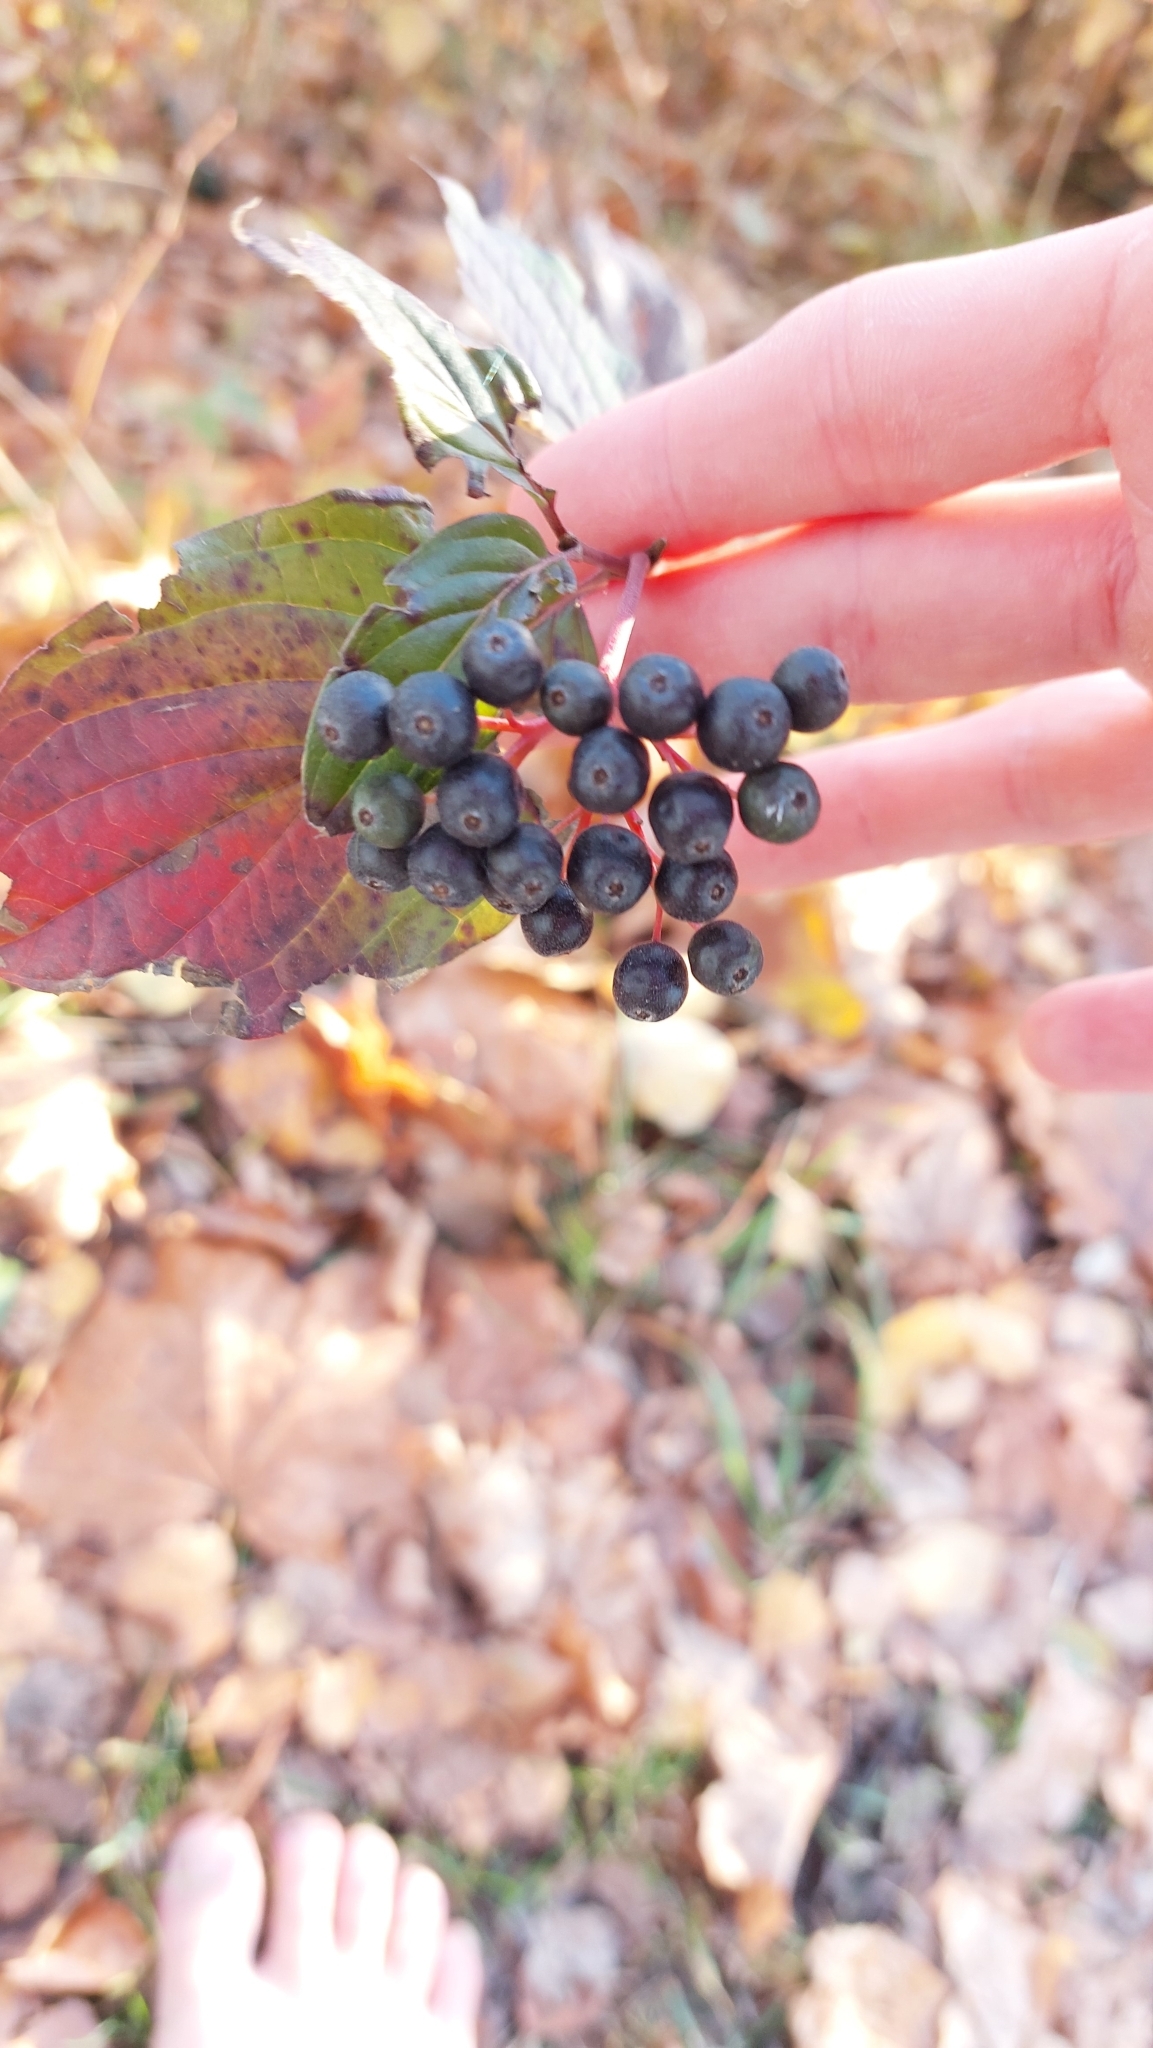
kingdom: Plantae
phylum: Tracheophyta
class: Magnoliopsida
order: Cornales
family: Cornaceae
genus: Cornus
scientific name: Cornus sanguinea
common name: Dogwood
